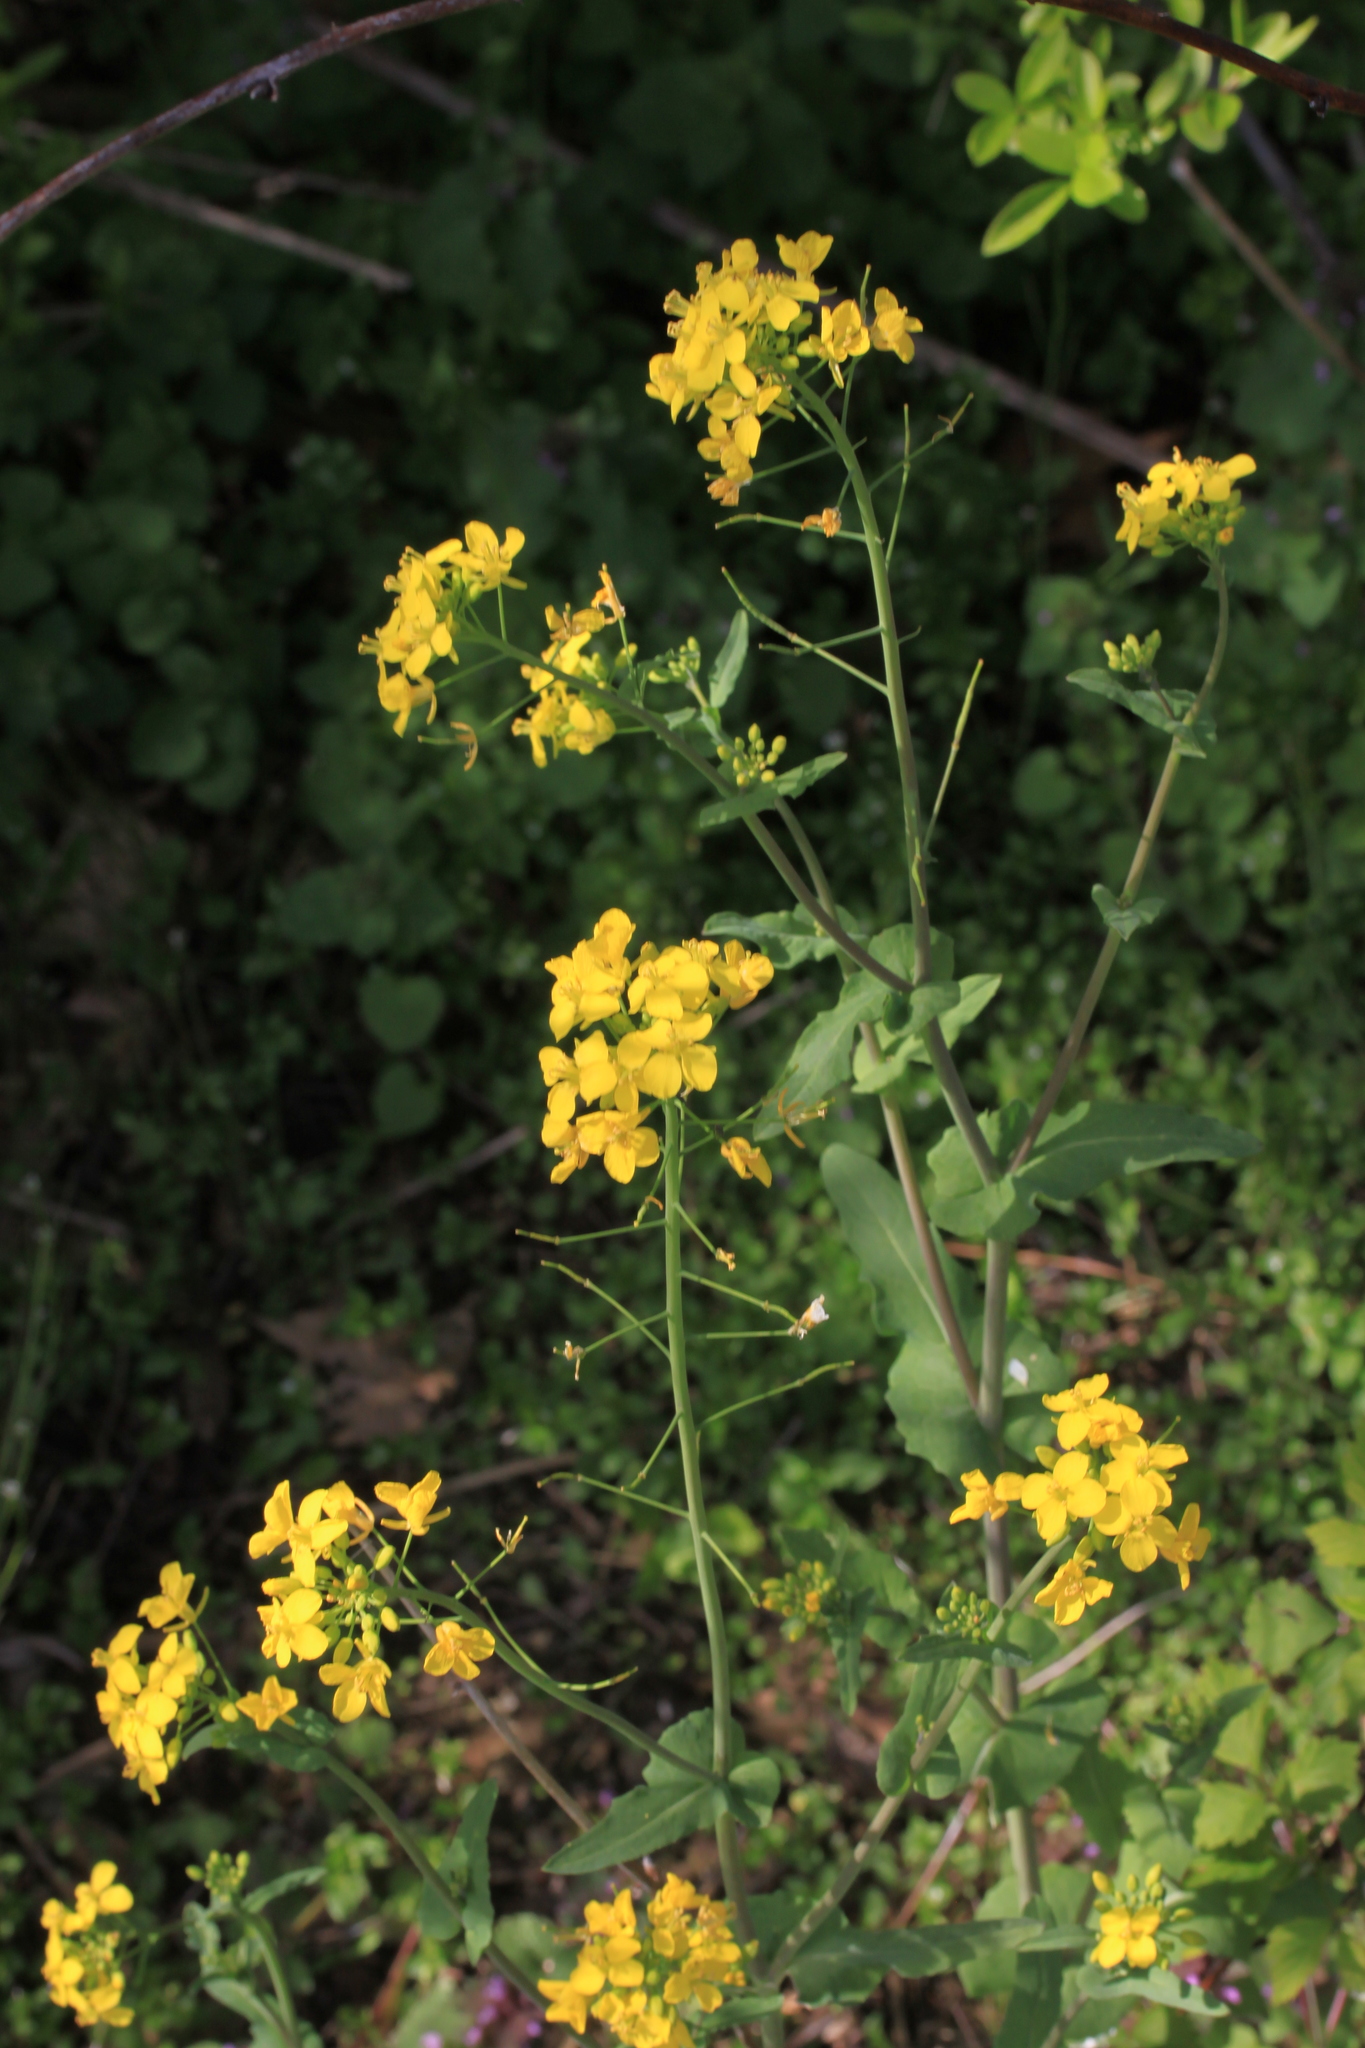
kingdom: Plantae
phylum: Tracheophyta
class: Magnoliopsida
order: Brassicales
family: Brassicaceae
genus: Brassica
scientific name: Brassica rapa
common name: Field mustard
